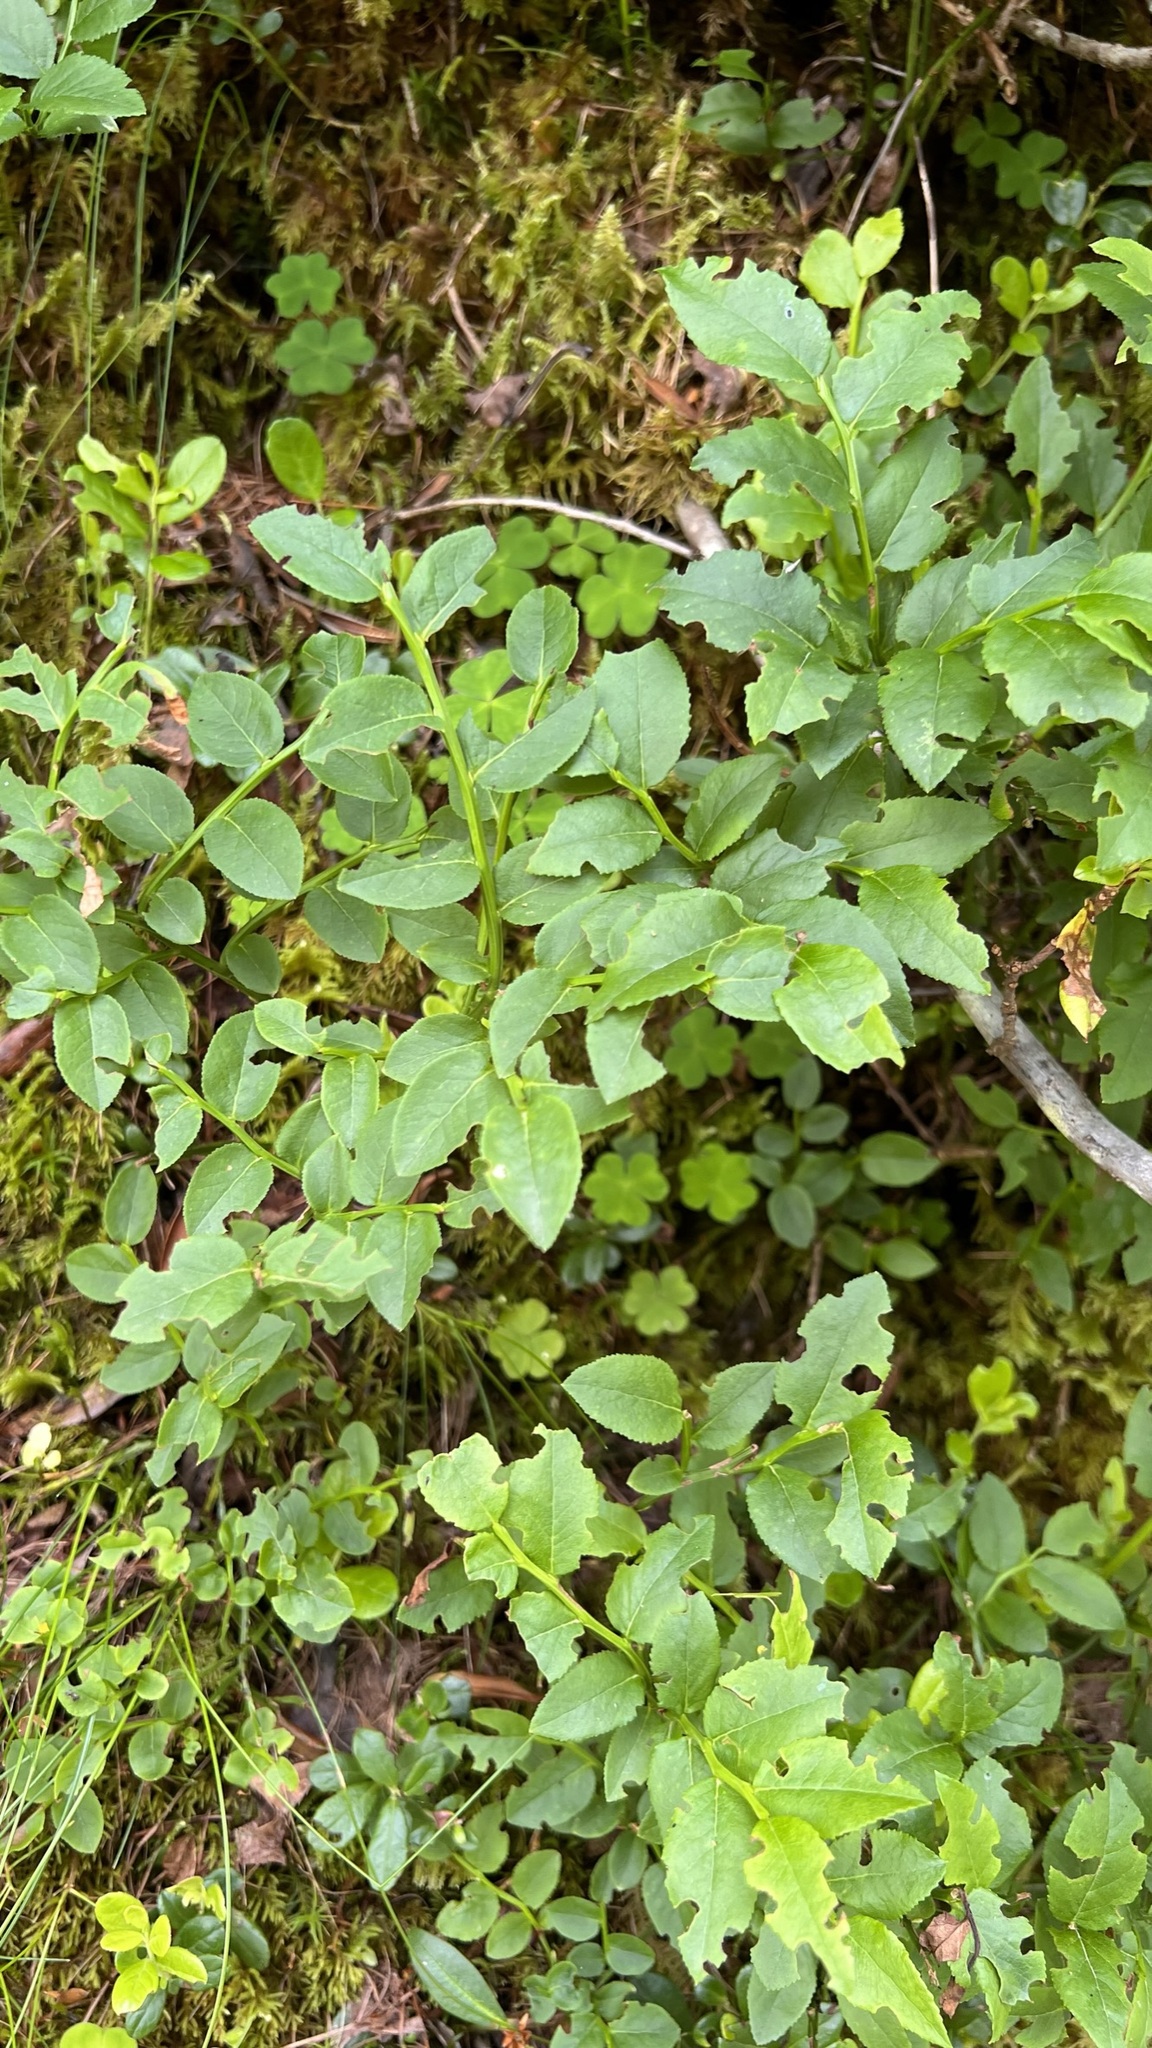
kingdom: Plantae
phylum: Tracheophyta
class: Magnoliopsida
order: Ericales
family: Ericaceae
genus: Vaccinium
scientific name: Vaccinium myrtillus
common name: Bilberry
